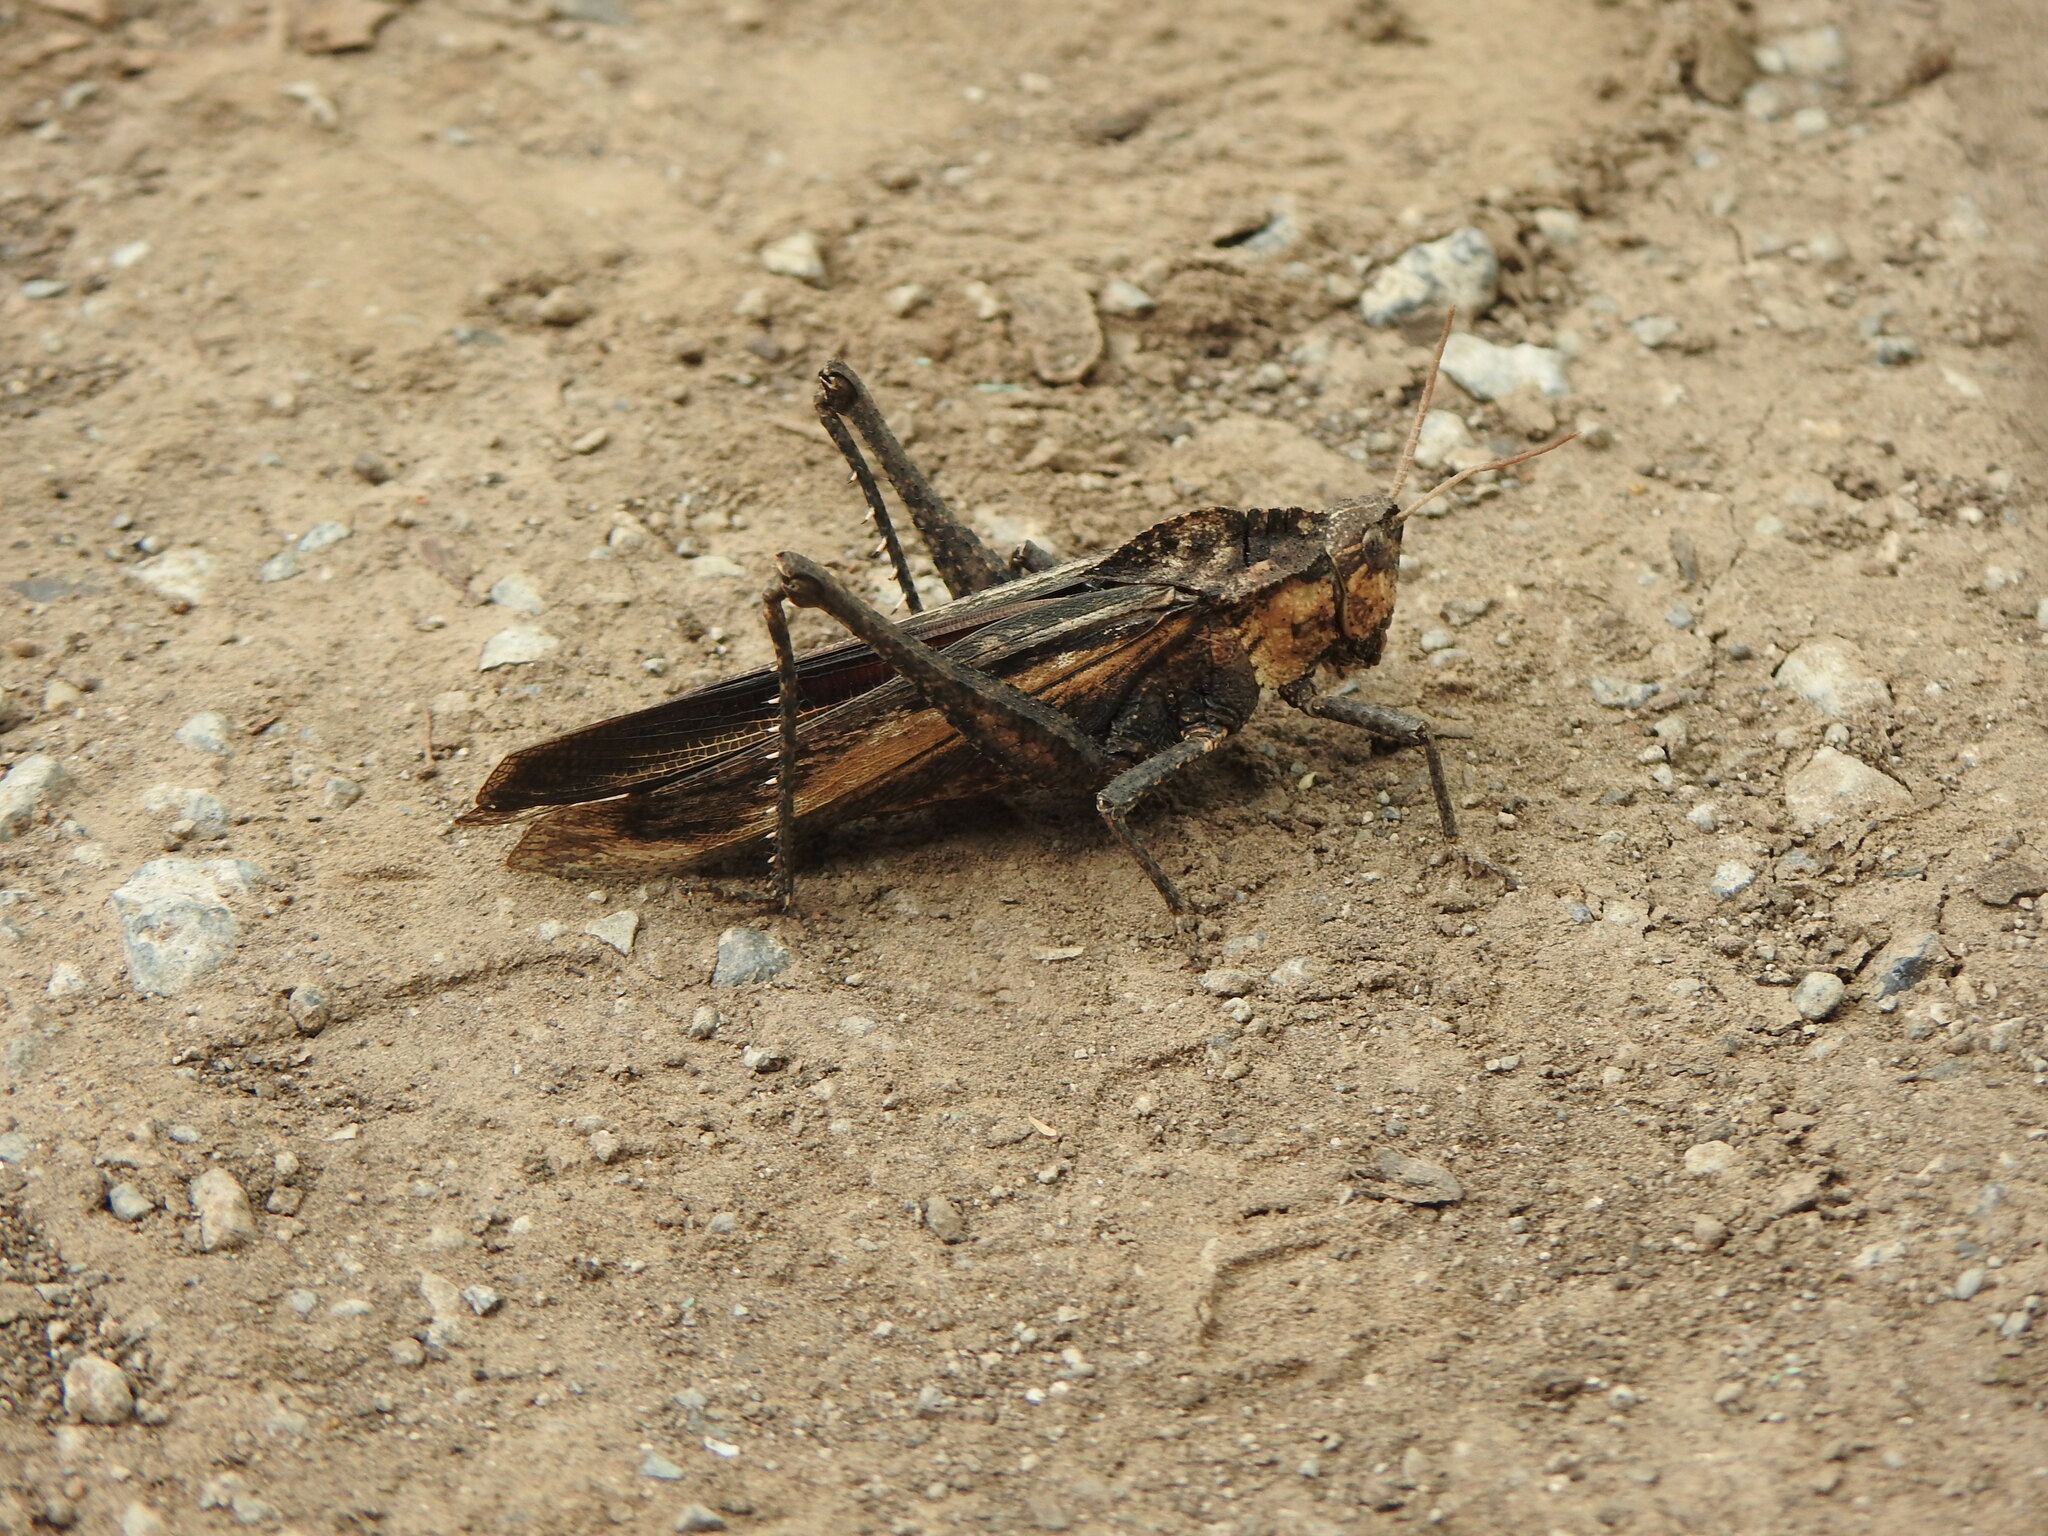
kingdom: Animalia
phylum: Arthropoda
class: Insecta
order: Orthoptera
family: Romaleidae
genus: Xyleus
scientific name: Xyleus discoideus
